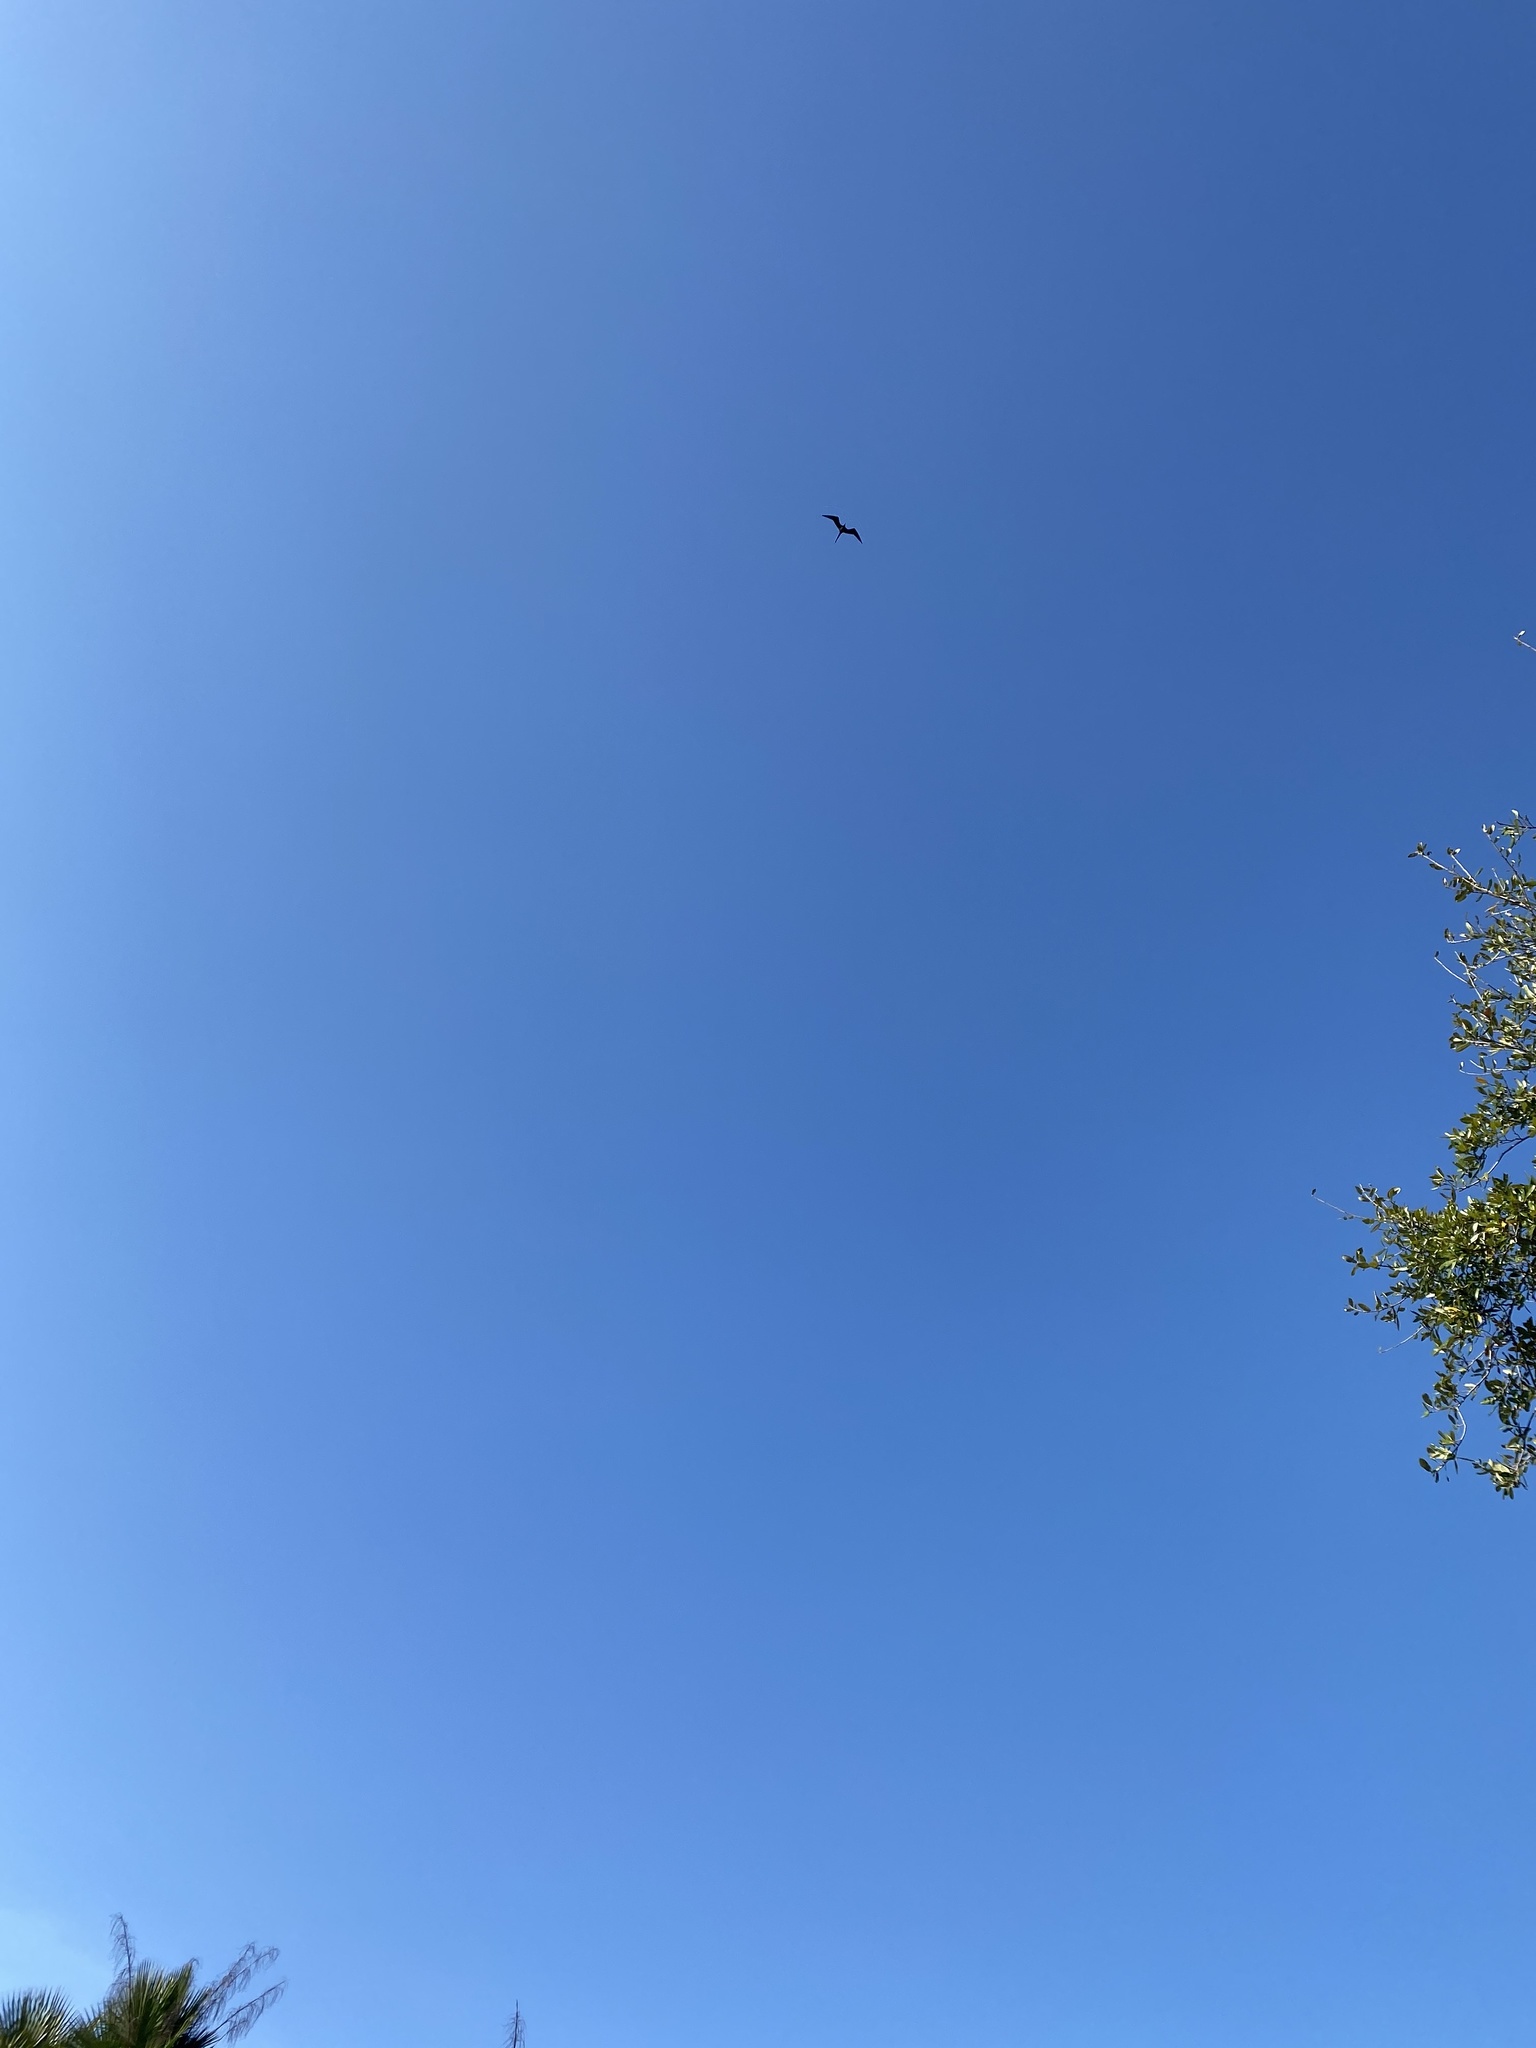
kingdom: Animalia
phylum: Chordata
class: Aves
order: Suliformes
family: Fregatidae
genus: Fregata
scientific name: Fregata magnificens
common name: Magnificent frigatebird
